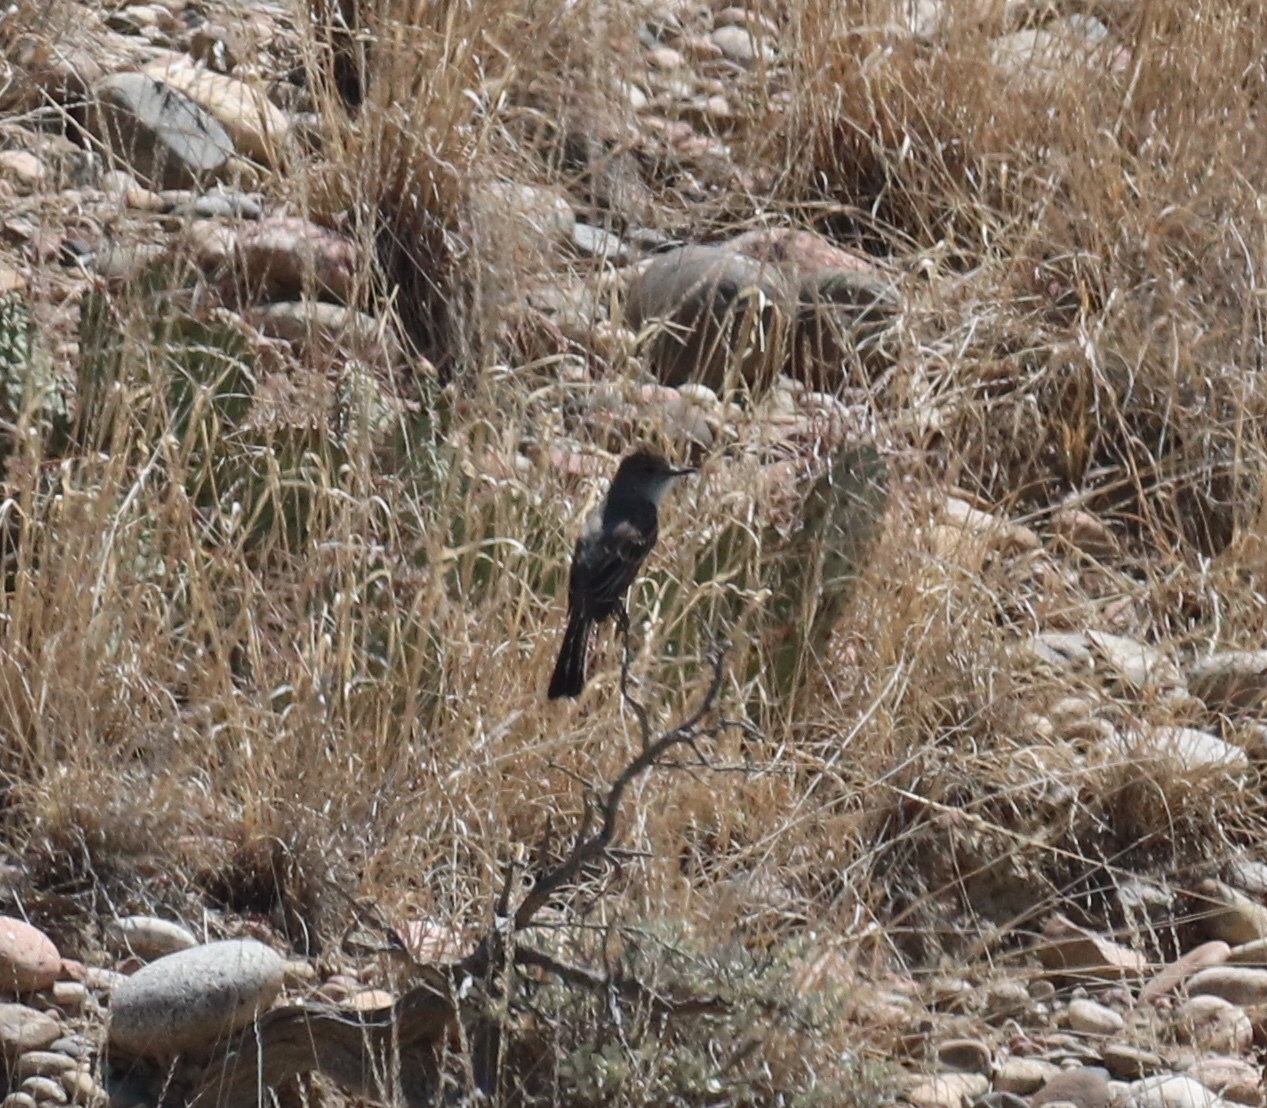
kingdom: Animalia
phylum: Chordata
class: Aves
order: Passeriformes
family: Tyrannidae
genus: Myiarchus
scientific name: Myiarchus cinerascens
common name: Ash-throated flycatcher
